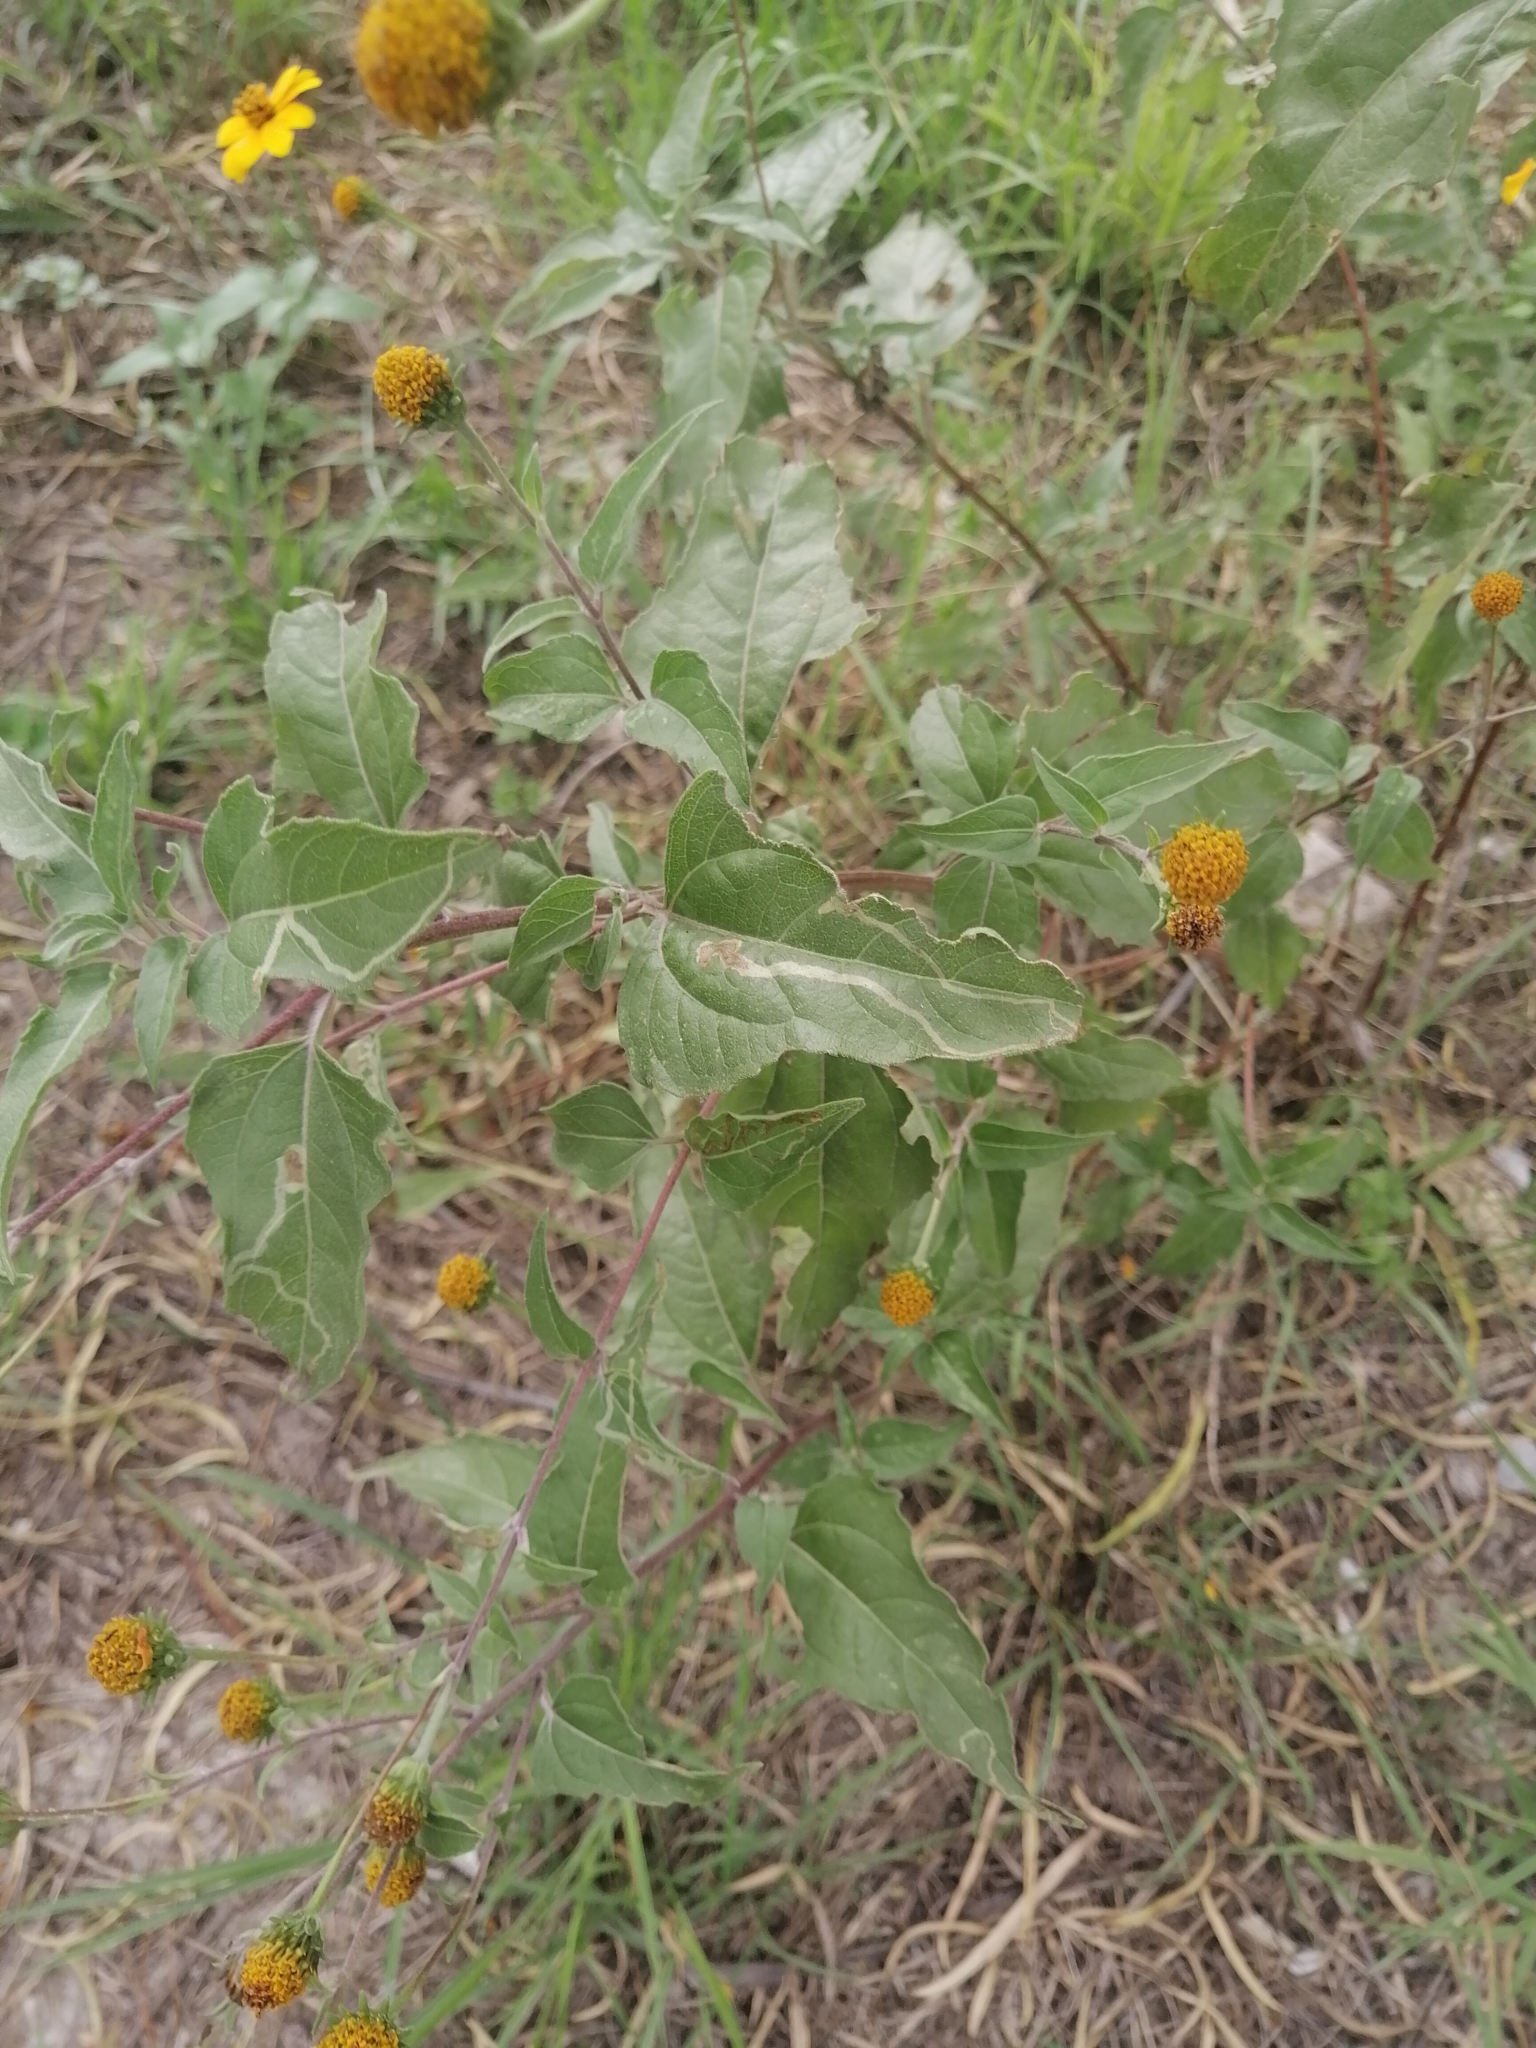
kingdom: Plantae
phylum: Tracheophyta
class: Magnoliopsida
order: Asterales
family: Asteraceae
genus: Viguiera
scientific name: Viguiera dentata
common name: Toothleaf
